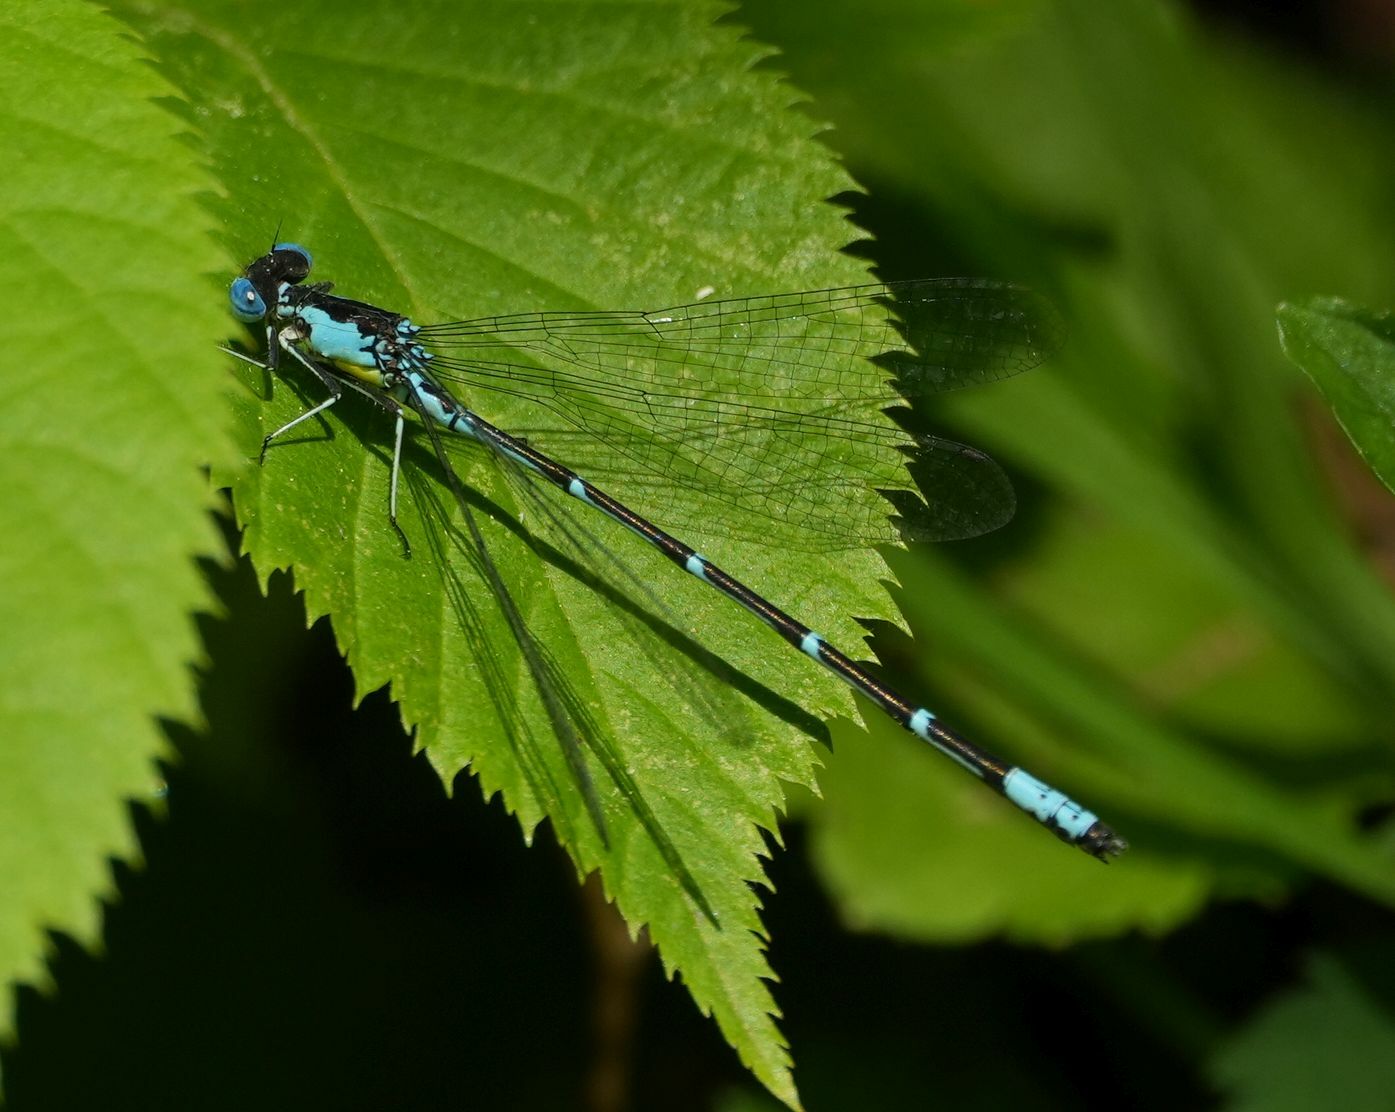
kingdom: Animalia
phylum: Arthropoda
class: Insecta
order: Odonata
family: Coenagrionidae
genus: Chromagrion
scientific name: Chromagrion conditum
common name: Aurora damsel
